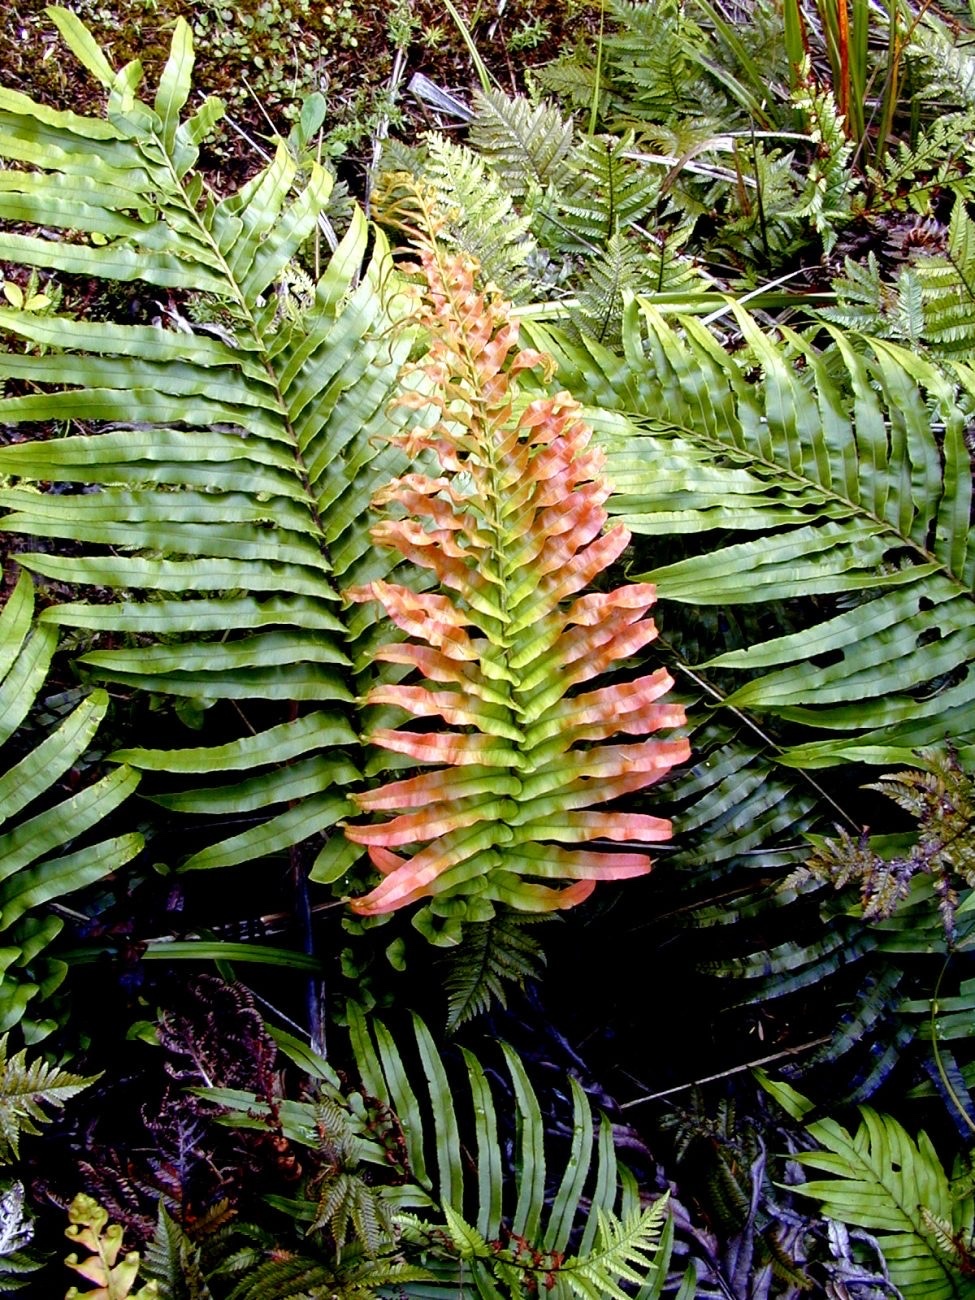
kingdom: Plantae
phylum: Tracheophyta
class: Polypodiopsida
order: Polypodiales
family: Blechnaceae
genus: Parablechnum
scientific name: Parablechnum novae-zelandiae
